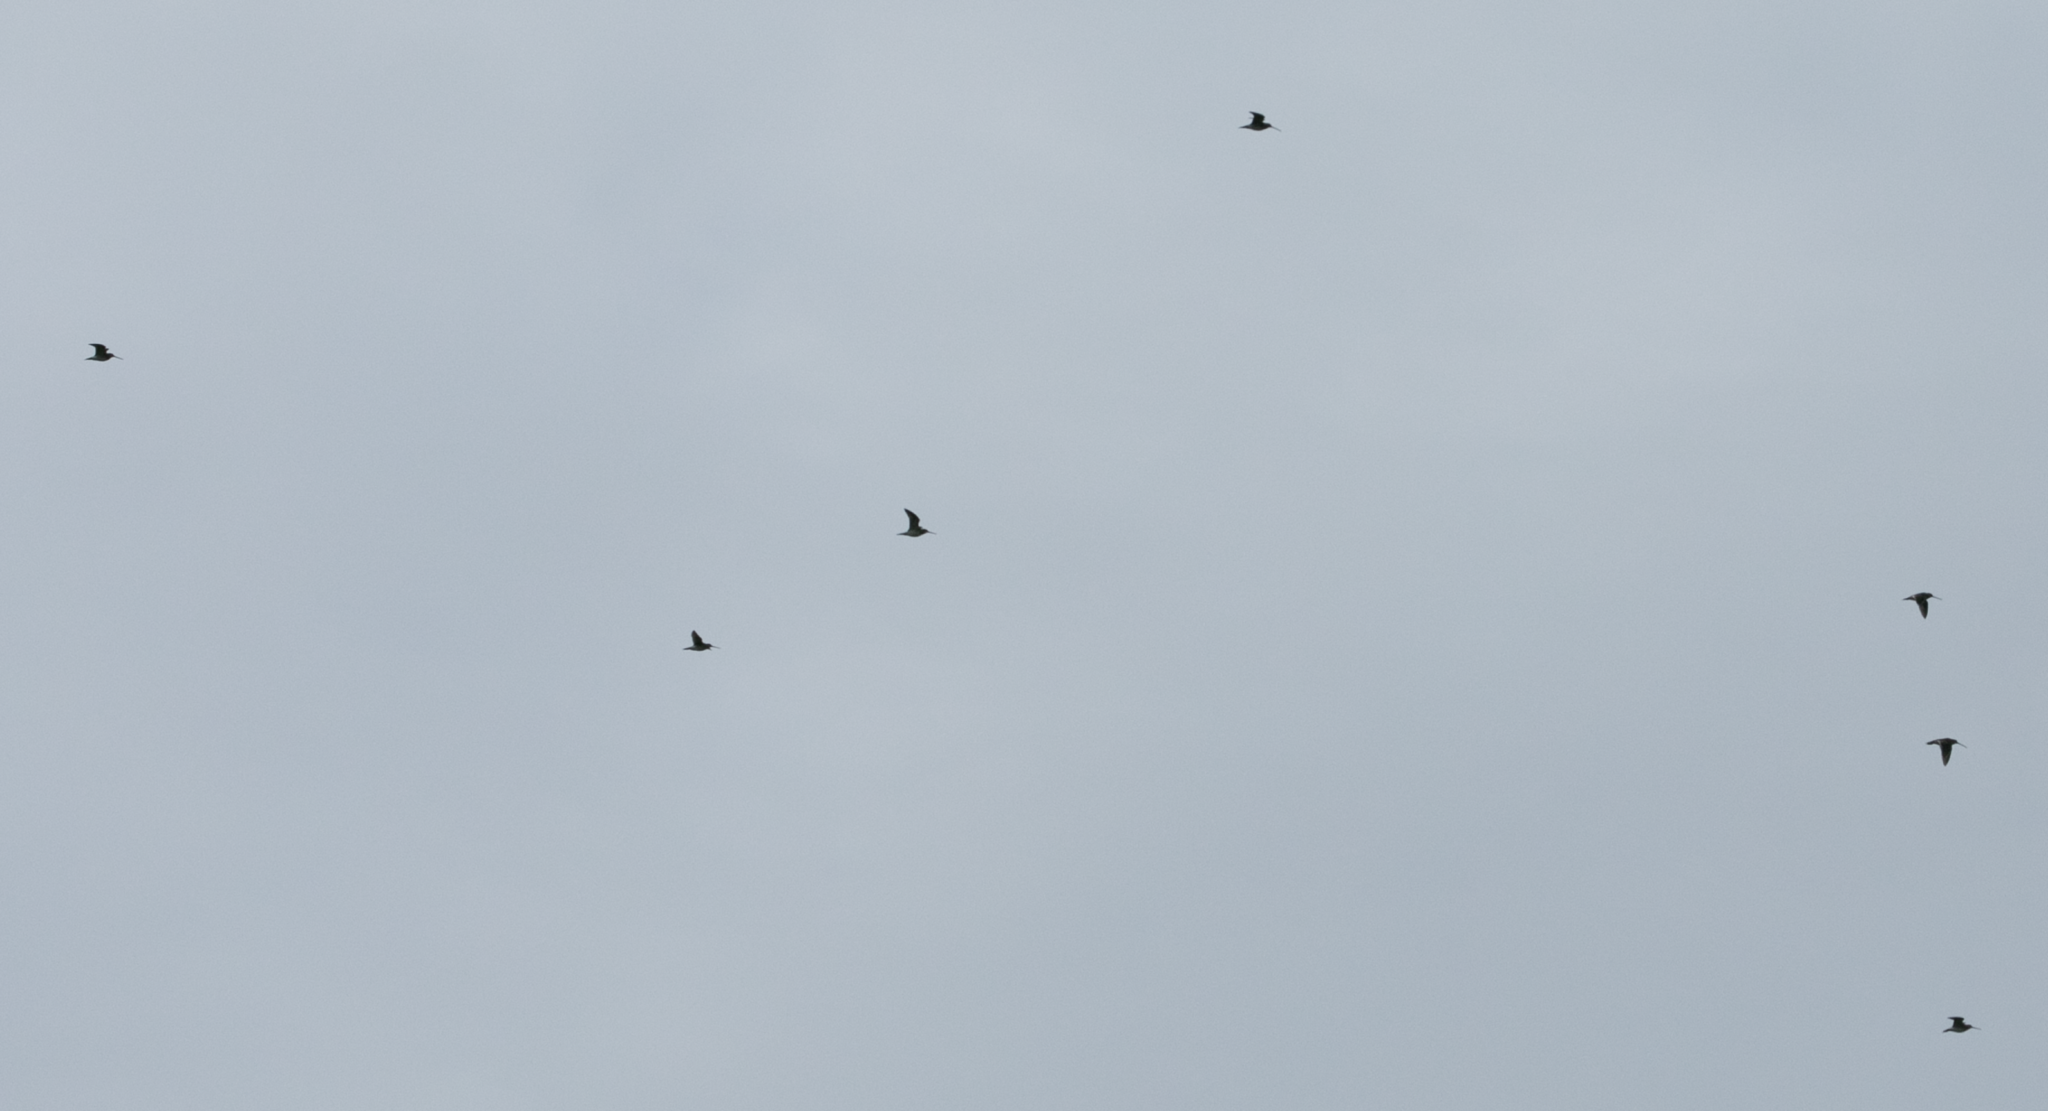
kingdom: Animalia
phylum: Chordata
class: Aves
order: Charadriiformes
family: Scolopacidae
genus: Gallinago
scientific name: Gallinago gallinago
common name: Common snipe
